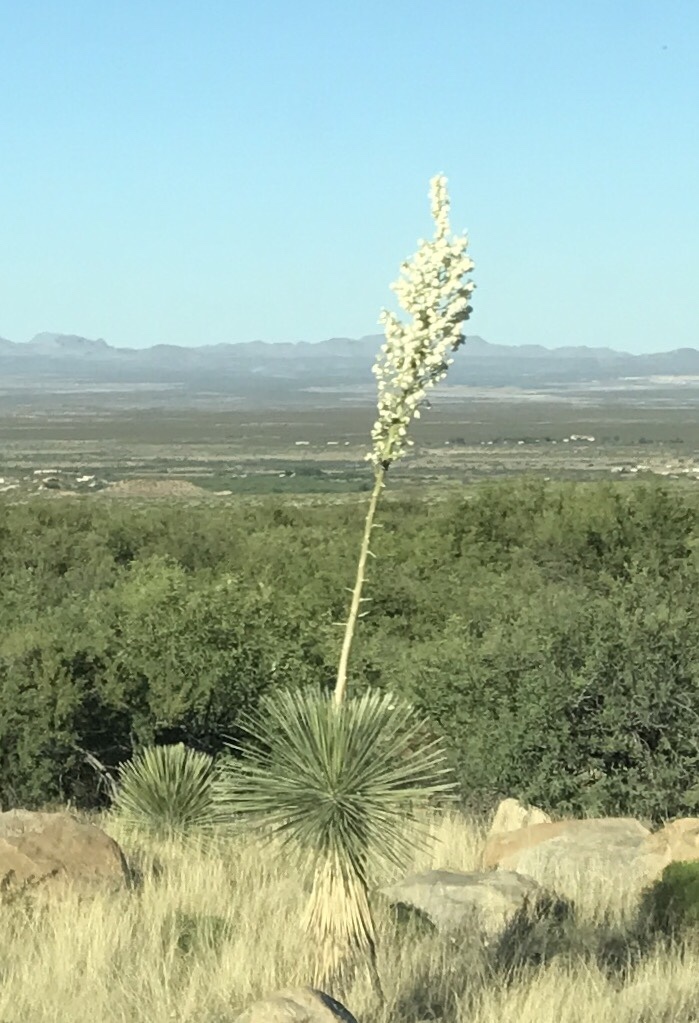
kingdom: Plantae
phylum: Tracheophyta
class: Liliopsida
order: Asparagales
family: Asparagaceae
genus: Yucca
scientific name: Yucca elata
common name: Palmella
